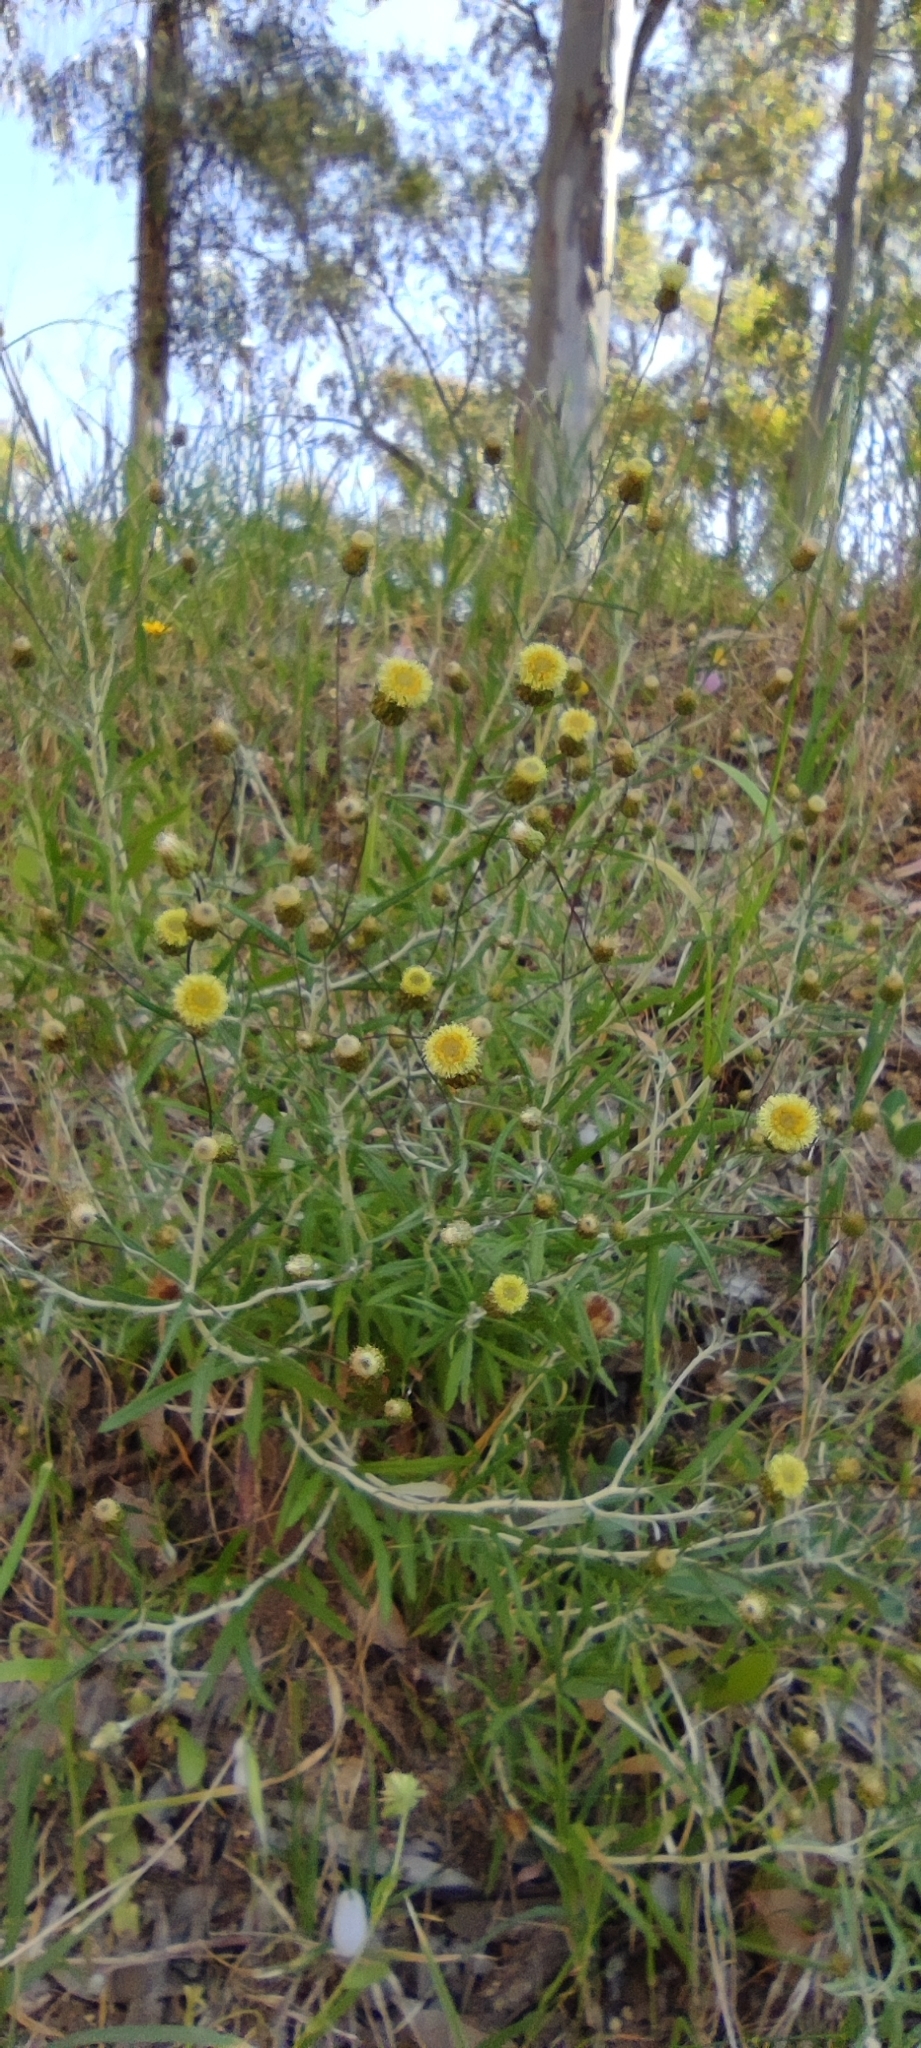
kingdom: Plantae
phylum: Tracheophyta
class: Magnoliopsida
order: Asterales
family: Asteraceae
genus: Phagnalon
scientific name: Phagnalon saxatile
